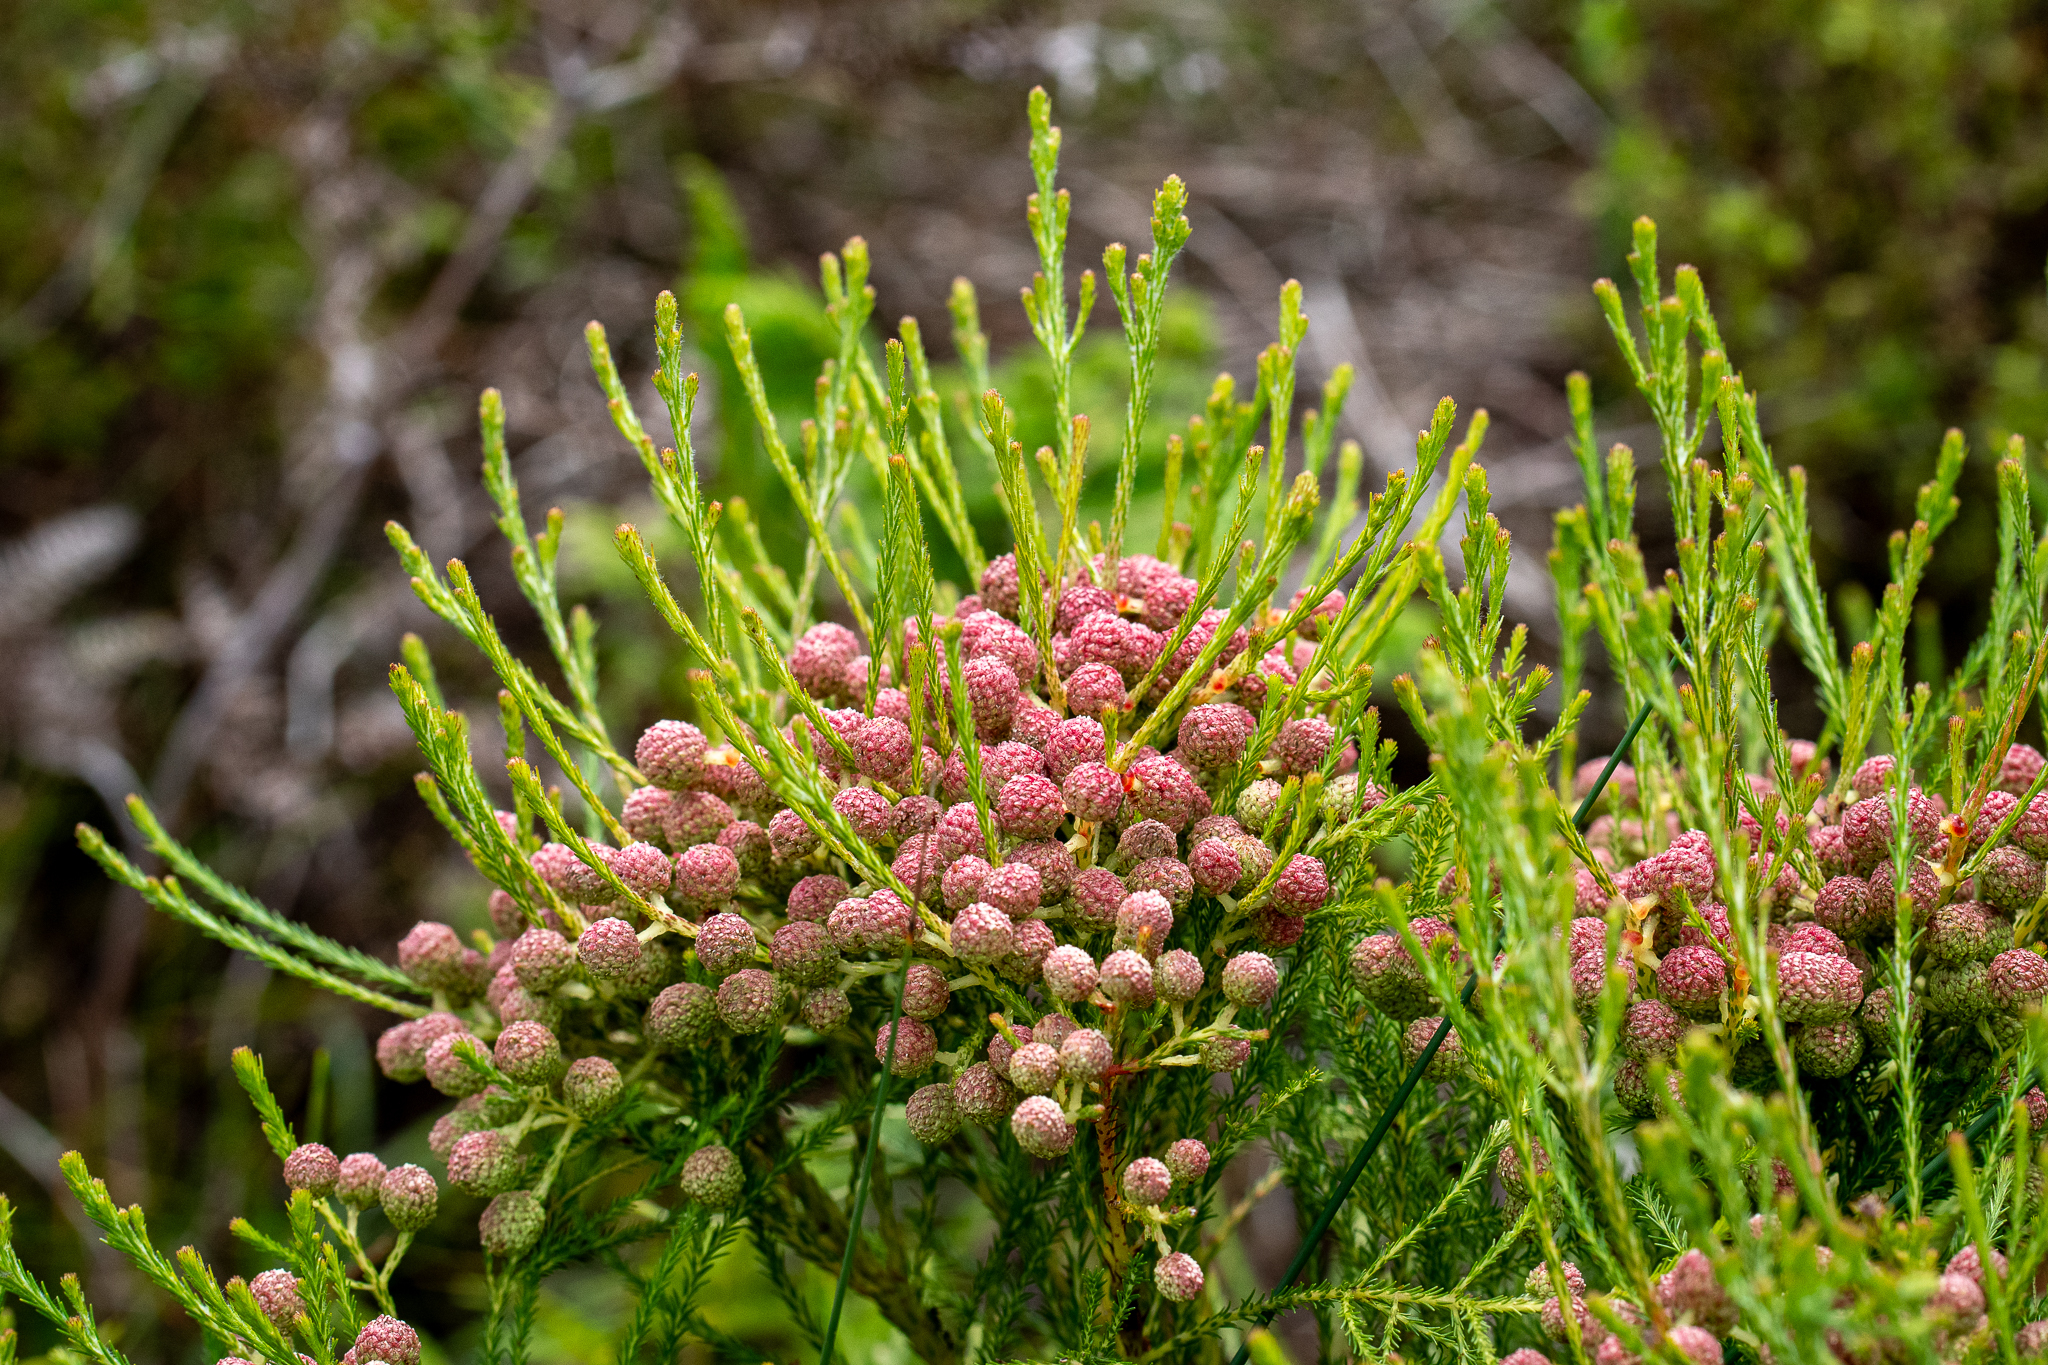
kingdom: Plantae
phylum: Tracheophyta
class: Magnoliopsida
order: Bruniales
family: Bruniaceae
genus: Berzelia
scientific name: Berzelia lanuginosa
